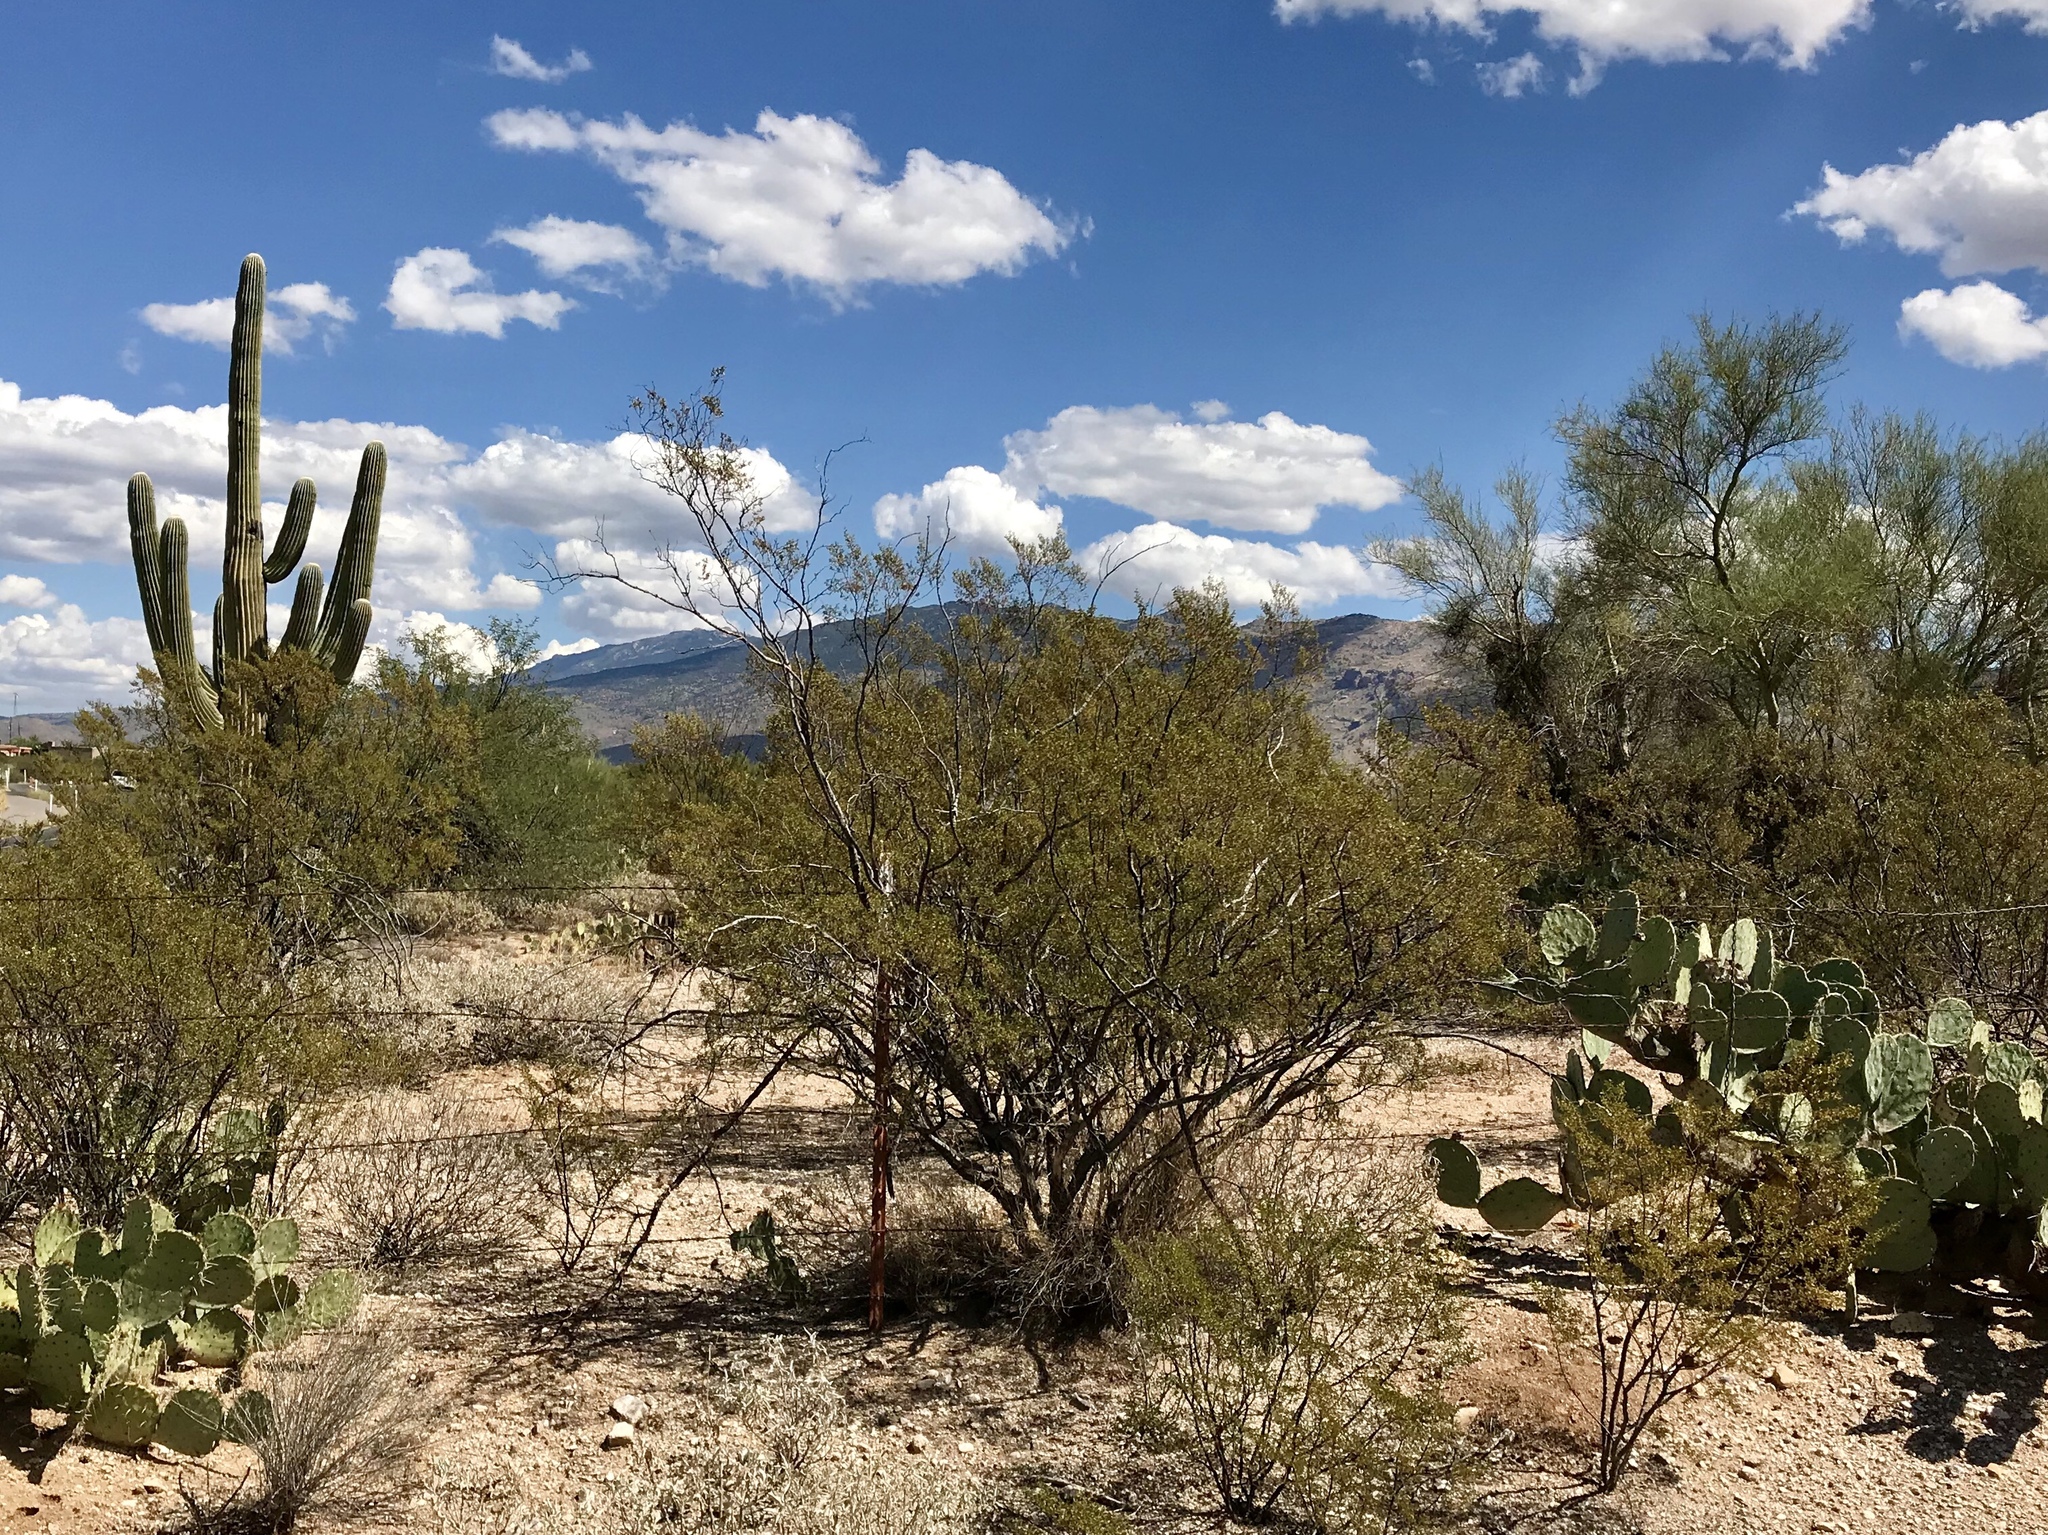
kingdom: Plantae
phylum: Tracheophyta
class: Magnoliopsida
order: Zygophyllales
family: Zygophyllaceae
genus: Larrea
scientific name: Larrea tridentata
